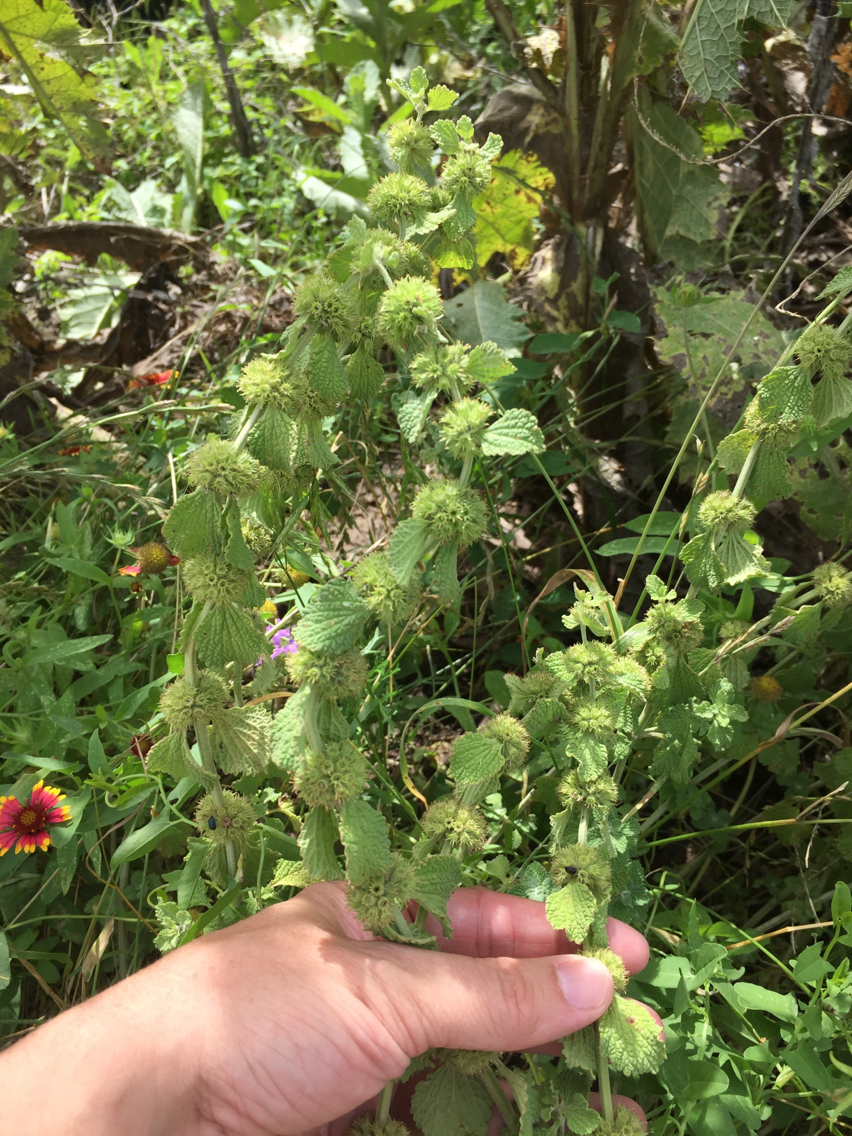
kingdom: Plantae
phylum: Tracheophyta
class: Magnoliopsida
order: Lamiales
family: Lamiaceae
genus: Marrubium
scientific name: Marrubium vulgare
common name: Horehound
